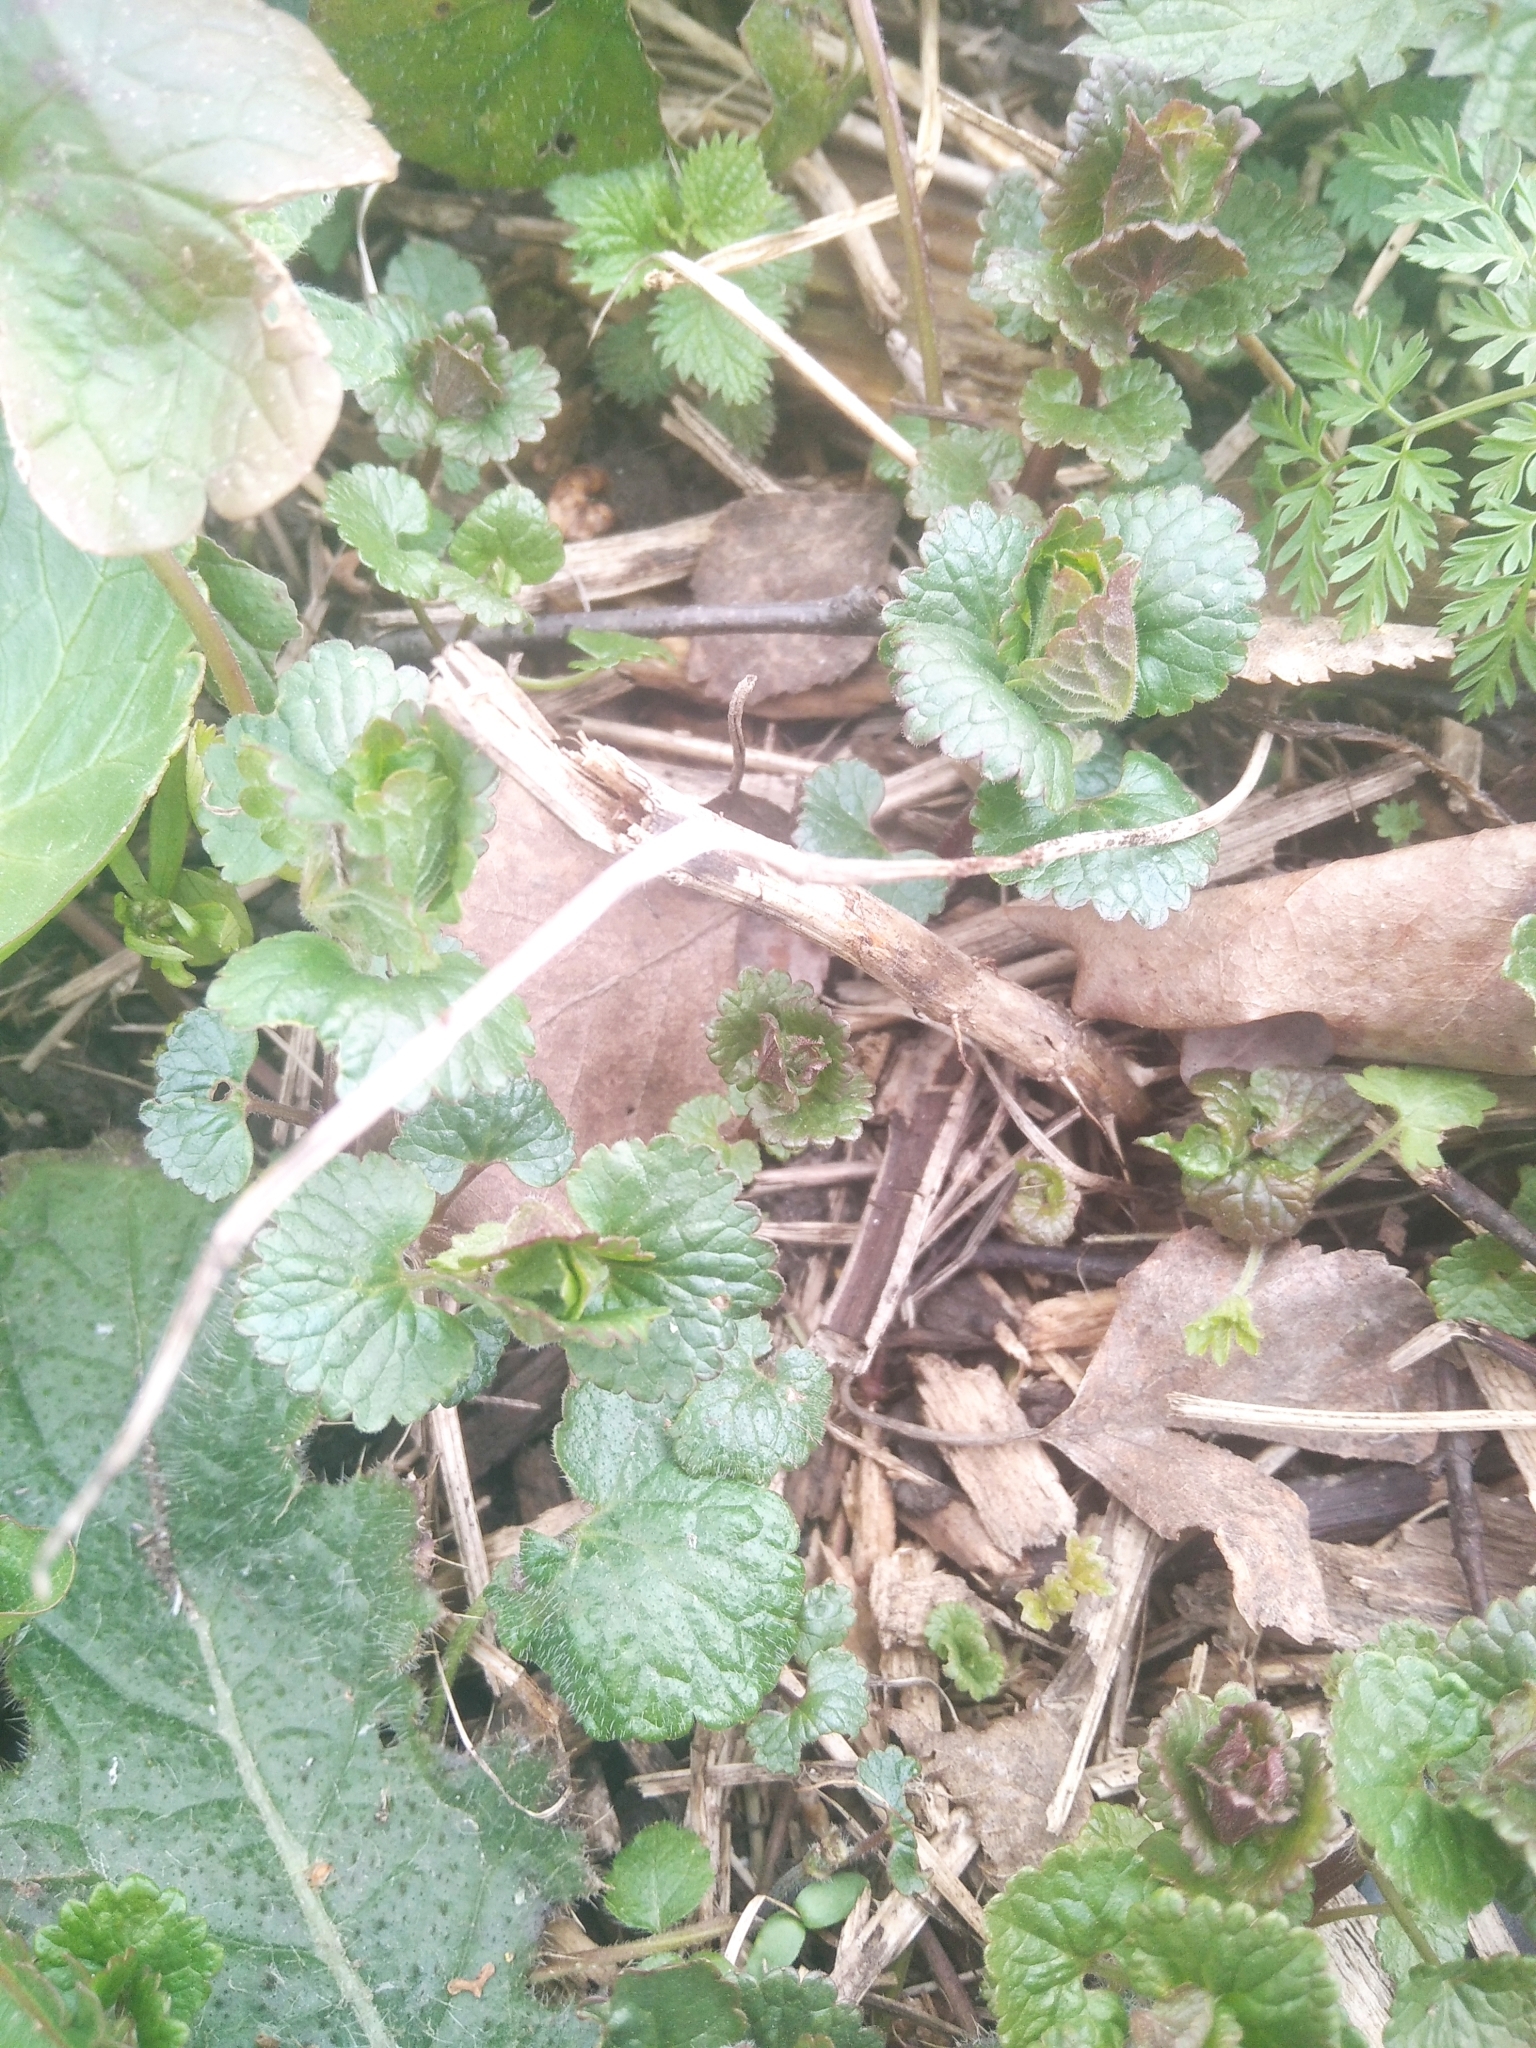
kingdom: Plantae
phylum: Tracheophyta
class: Magnoliopsida
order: Lamiales
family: Lamiaceae
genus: Glechoma
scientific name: Glechoma hederacea
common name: Ground ivy
